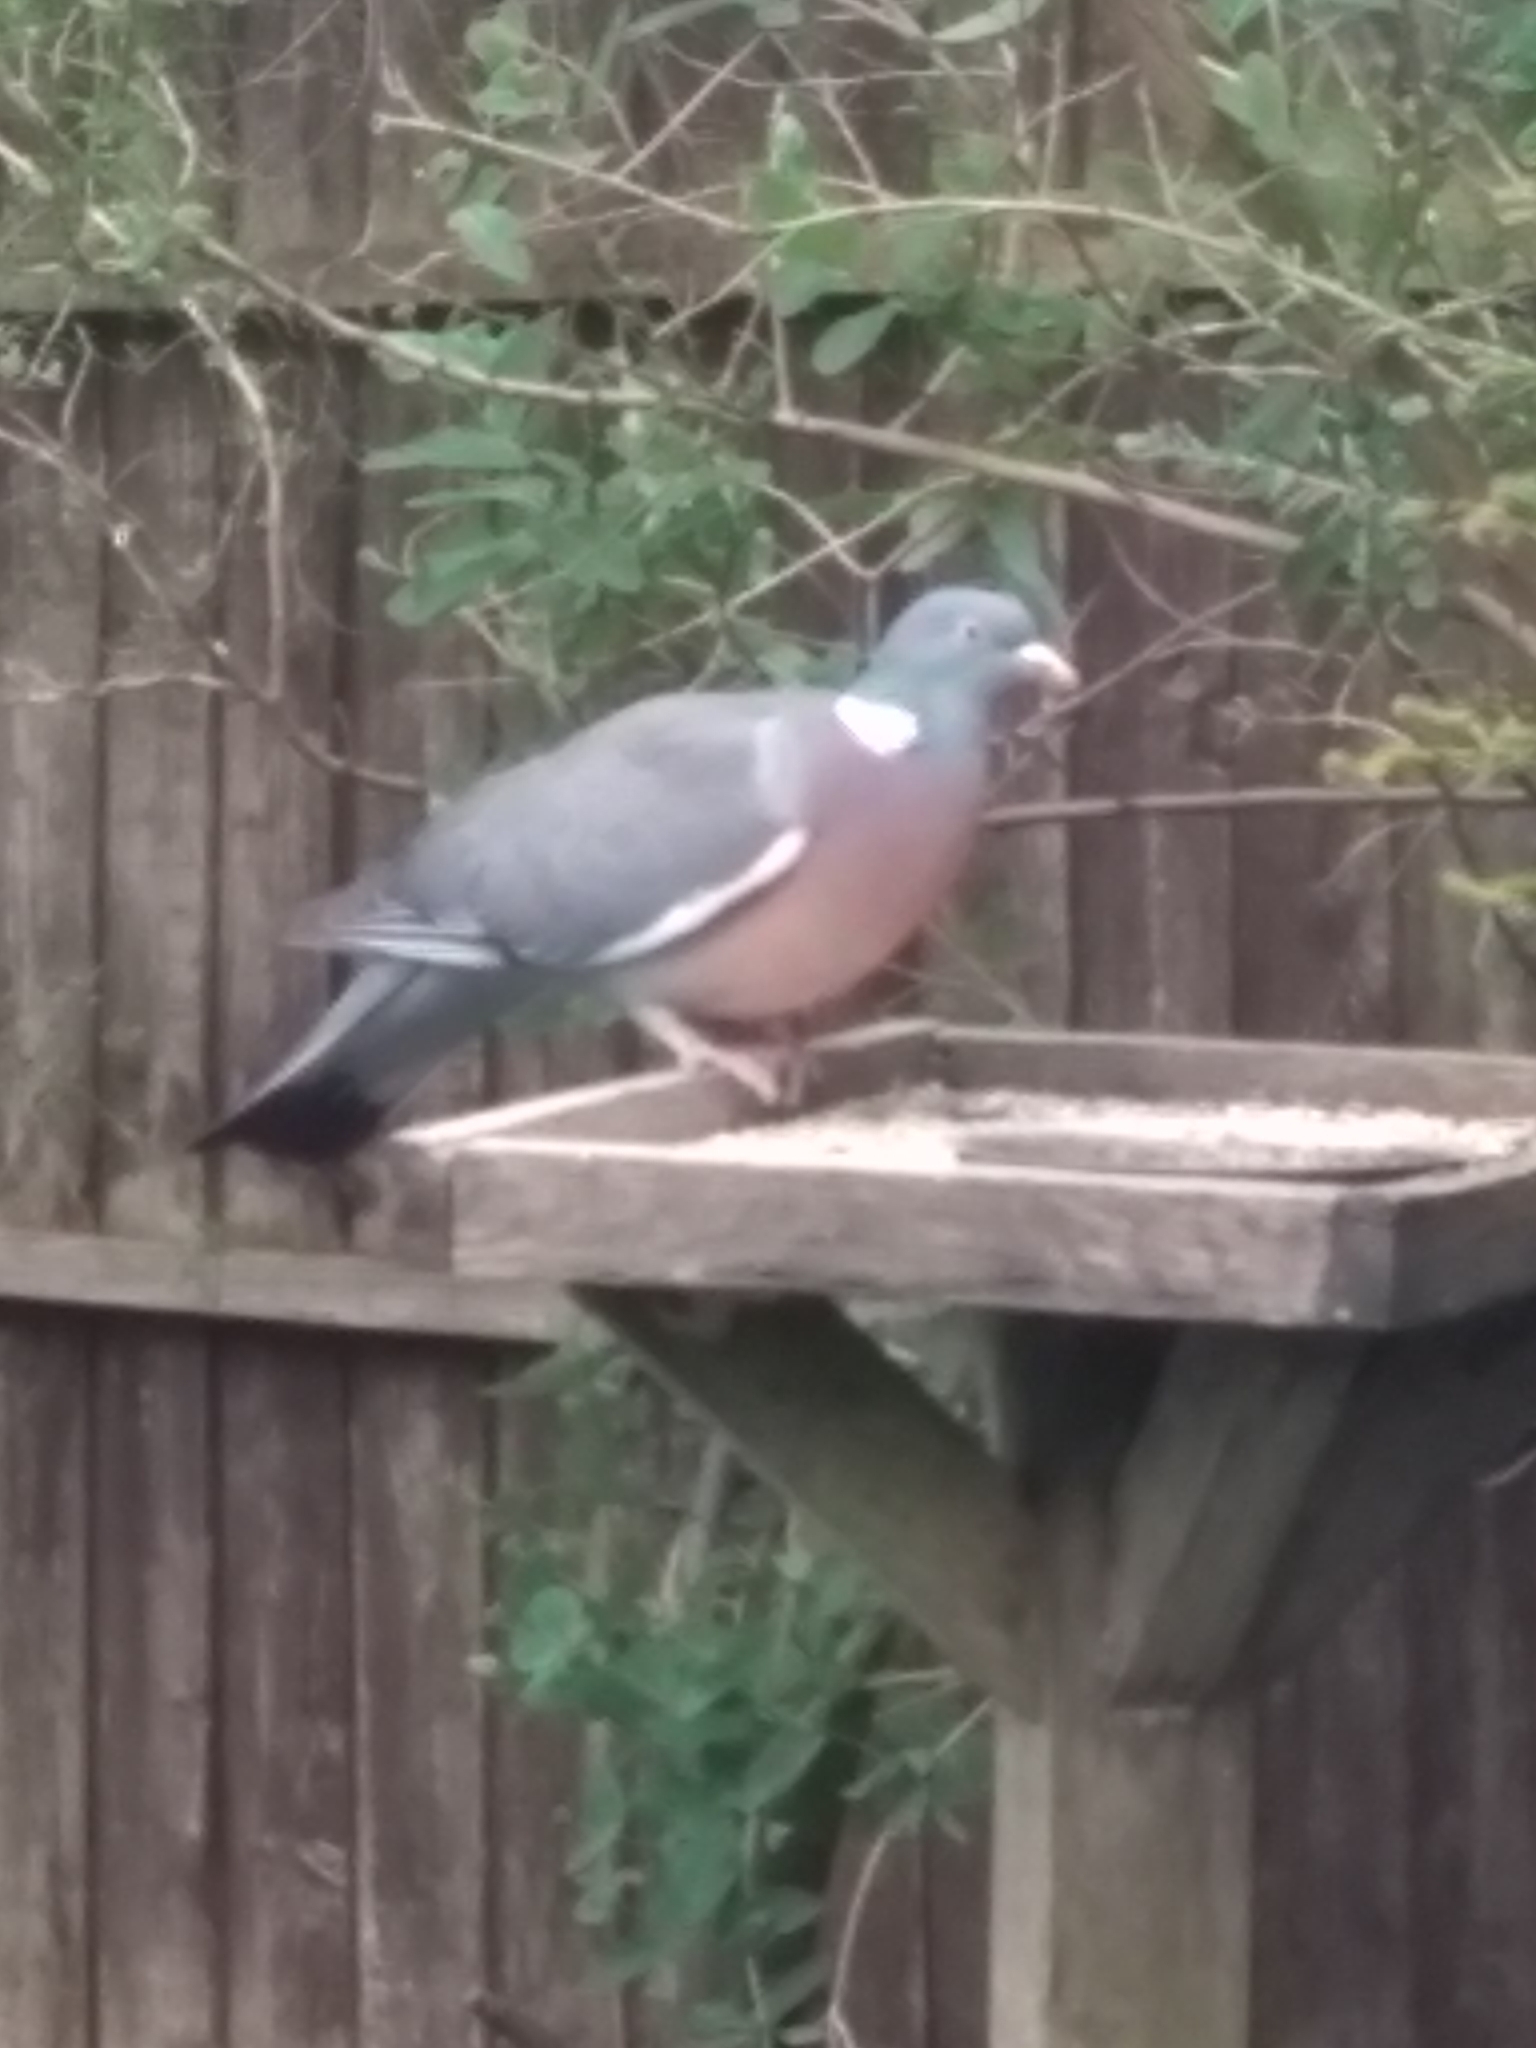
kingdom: Animalia
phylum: Chordata
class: Aves
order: Columbiformes
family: Columbidae
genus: Columba
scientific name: Columba palumbus
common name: Common wood pigeon
